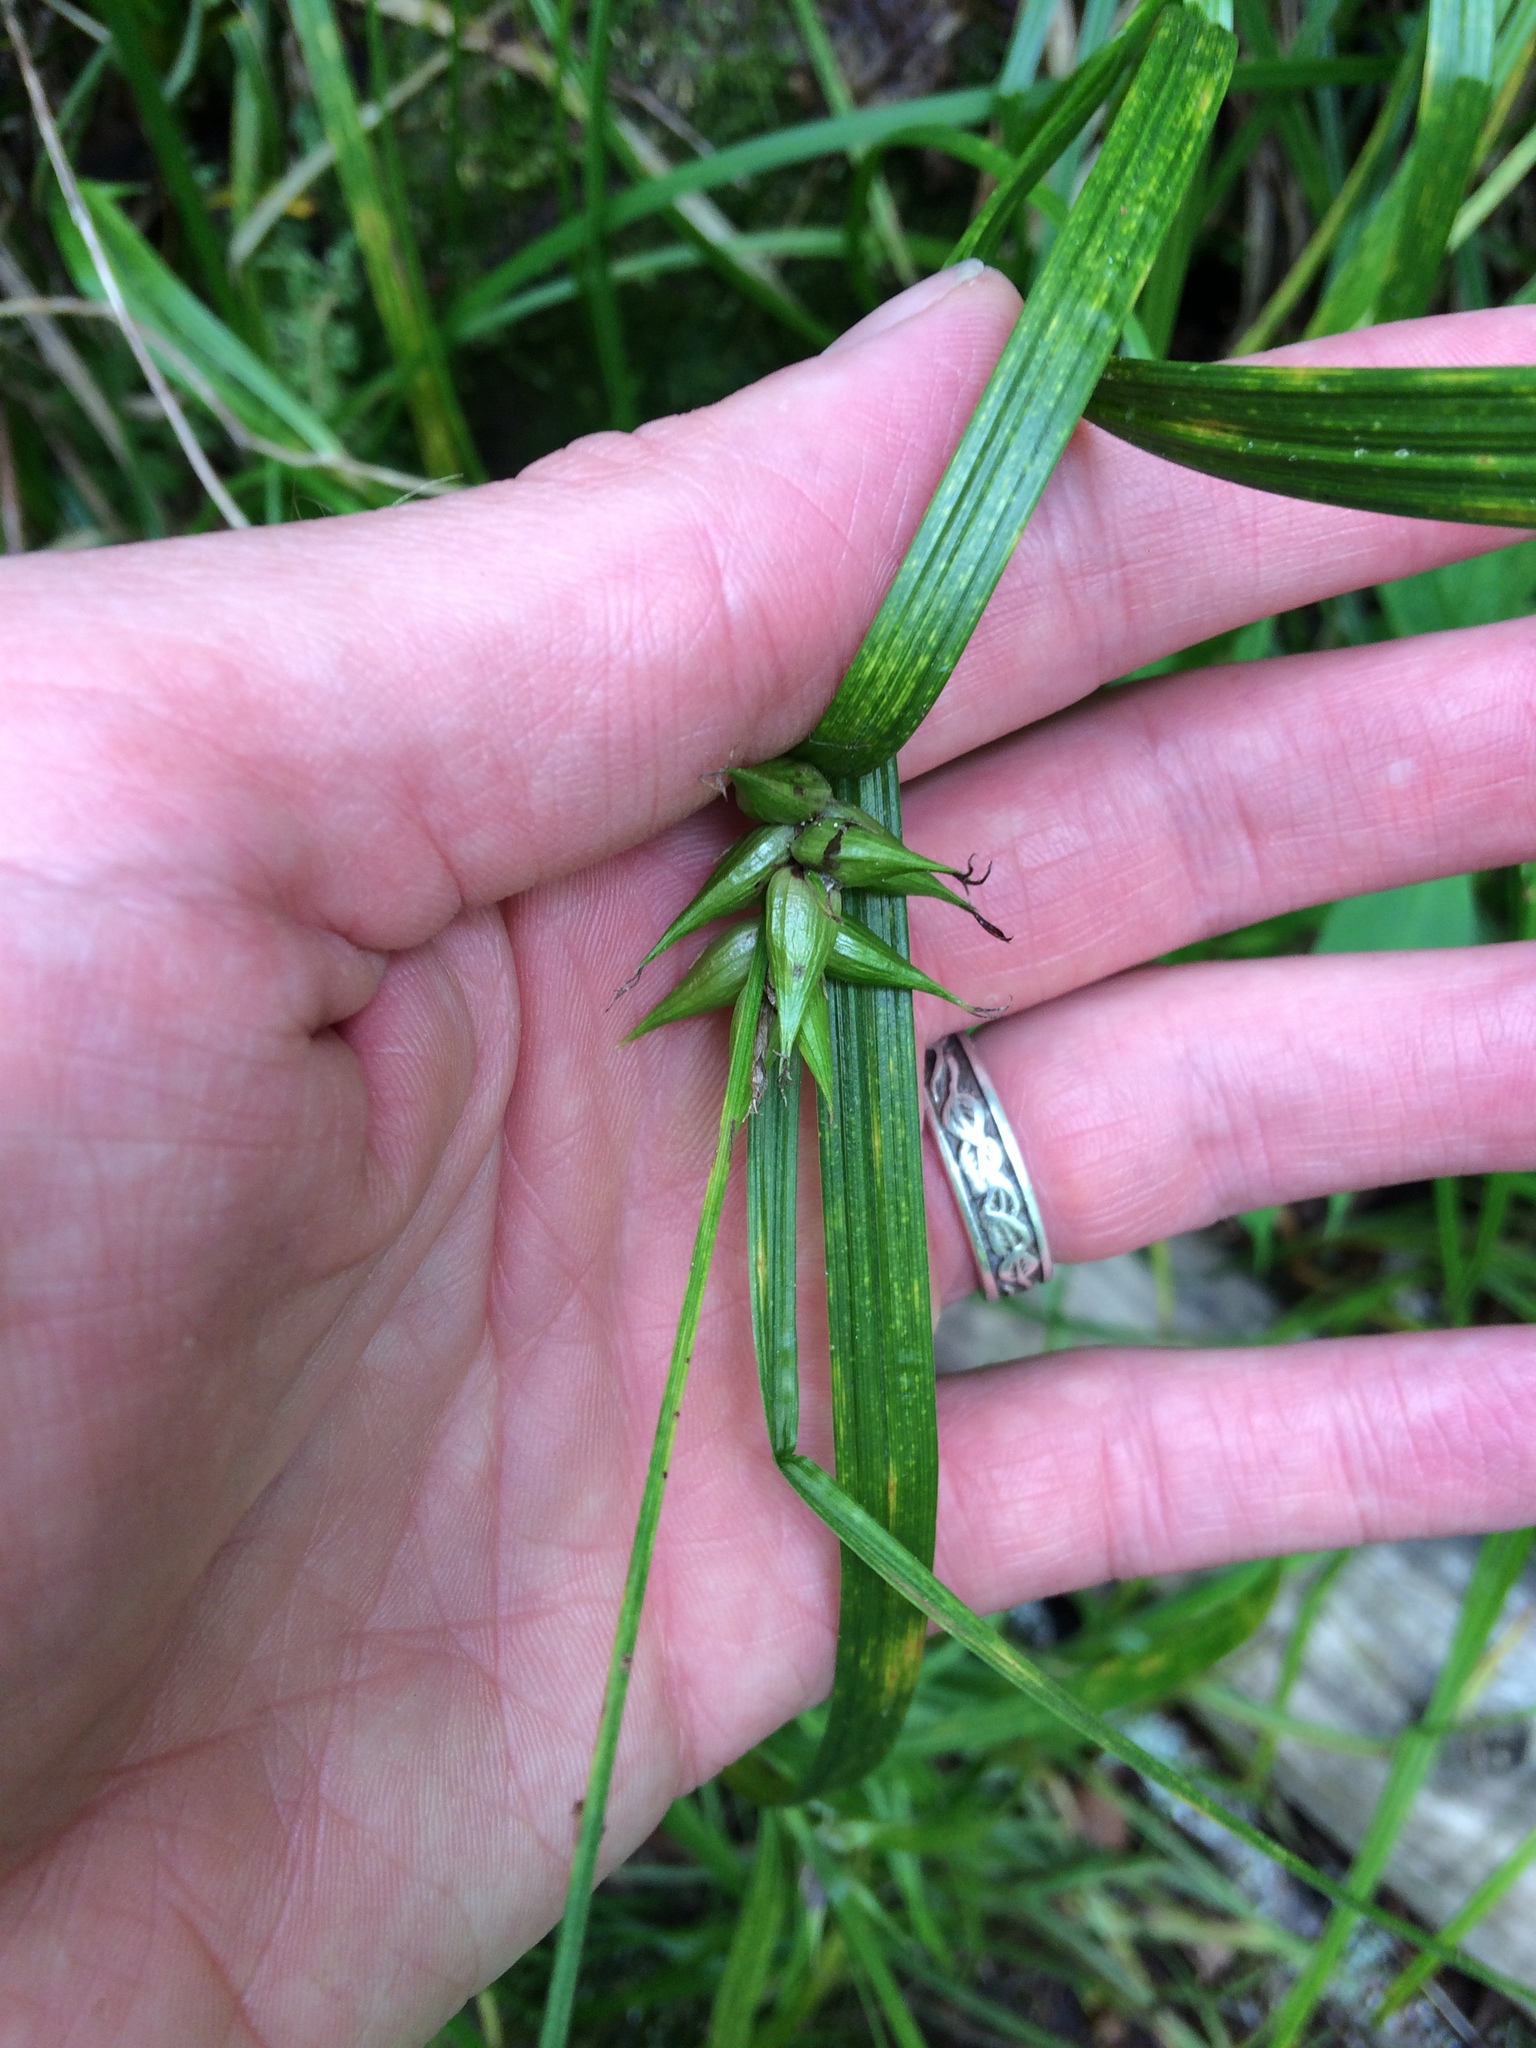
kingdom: Plantae
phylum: Tracheophyta
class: Liliopsida
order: Poales
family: Cyperaceae
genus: Carex
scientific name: Carex intumescens
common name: Greater bladder sedge
